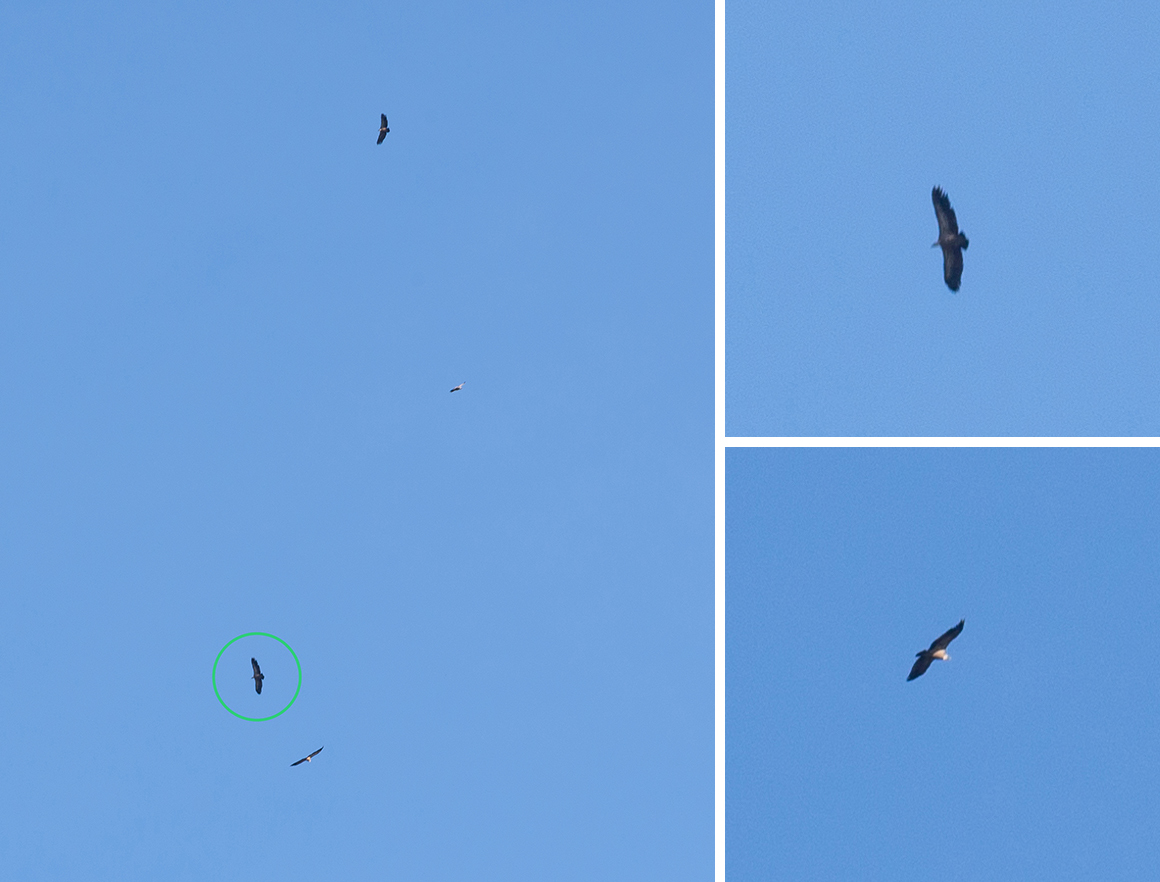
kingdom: Animalia
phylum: Chordata
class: Aves
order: Accipitriformes
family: Accipitridae
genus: Gyps
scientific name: Gyps fulvus
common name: Griffon vulture
